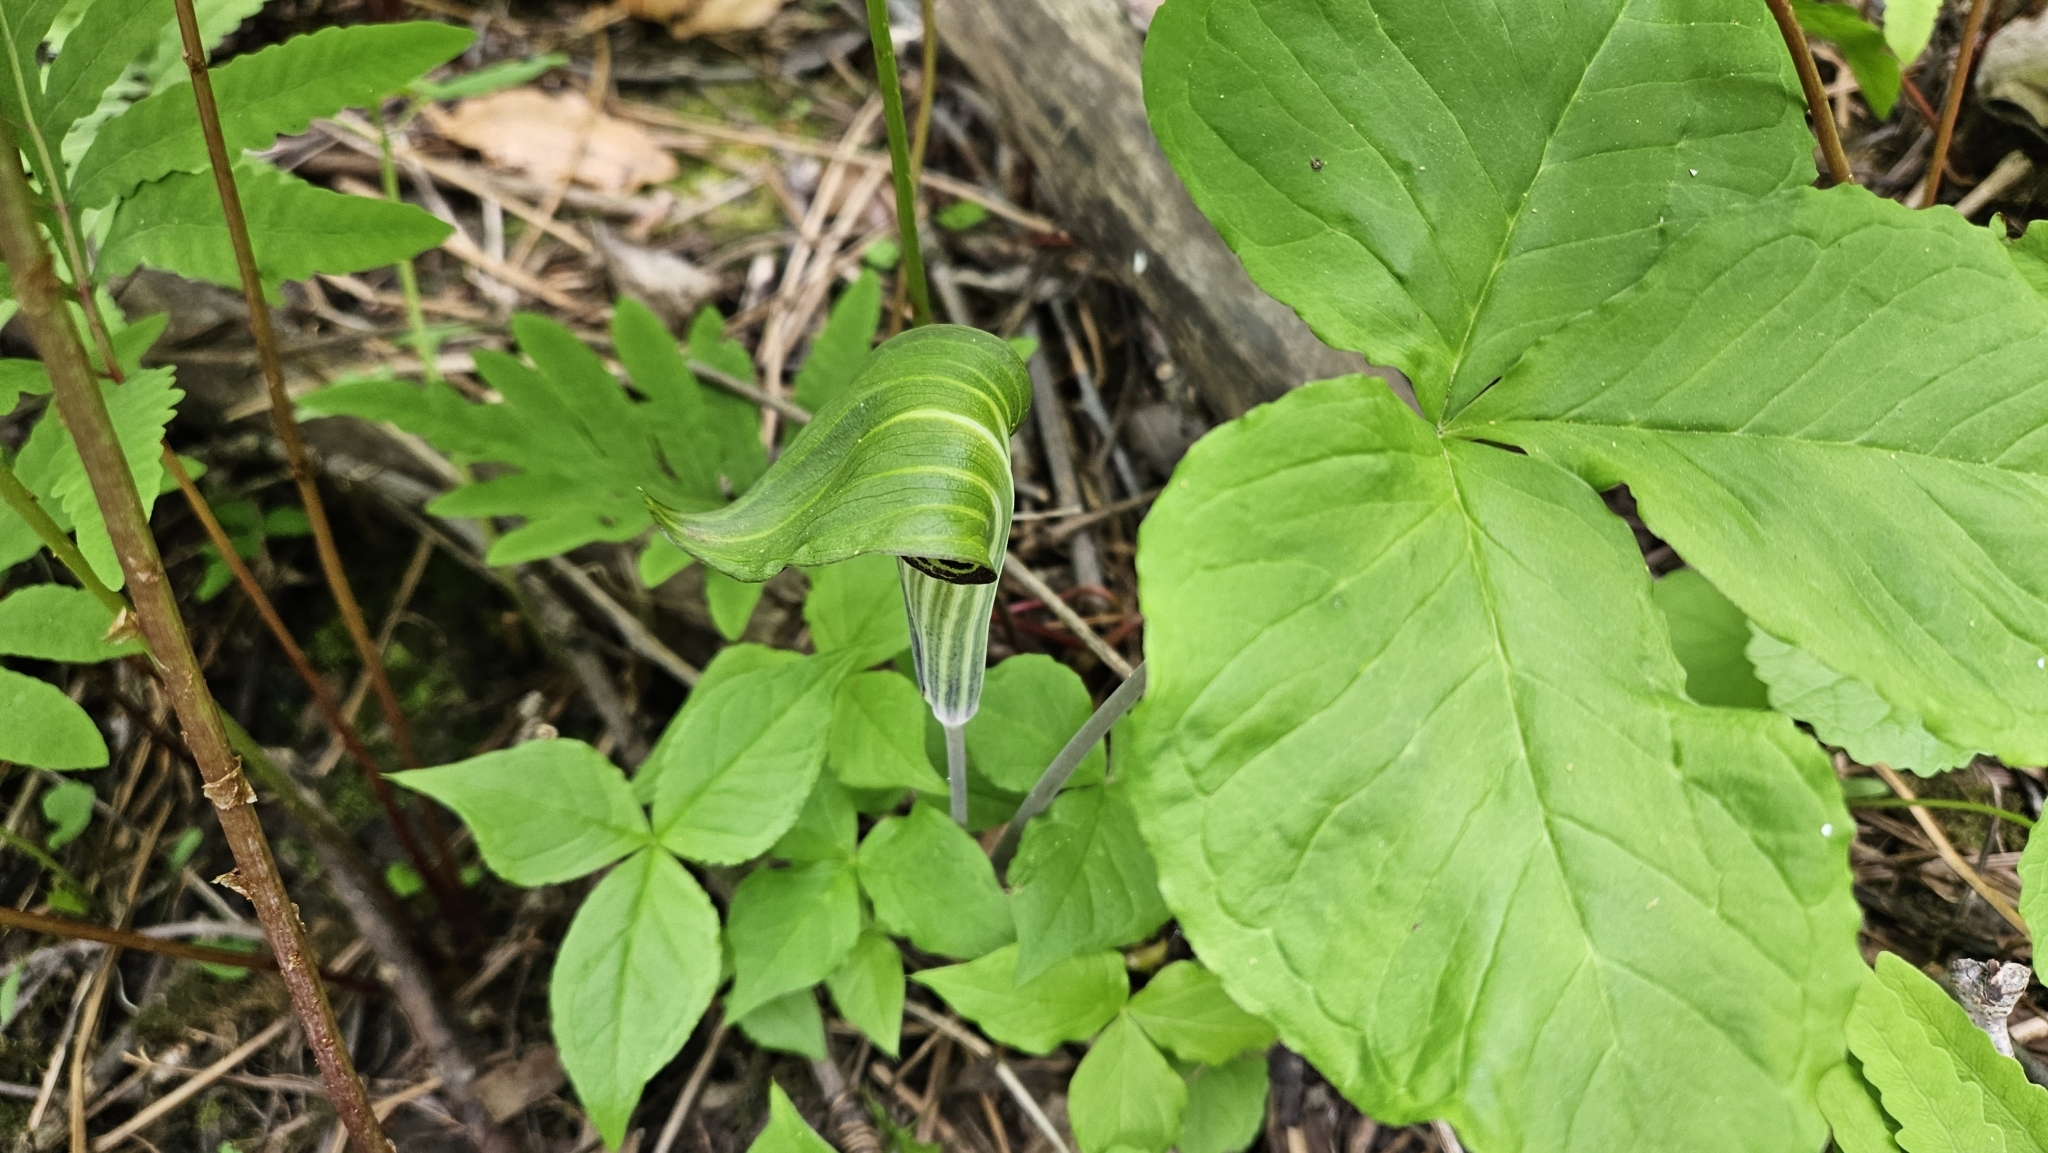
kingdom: Plantae
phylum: Tracheophyta
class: Liliopsida
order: Alismatales
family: Araceae
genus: Arisaema
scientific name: Arisaema triphyllum
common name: Jack-in-the-pulpit
